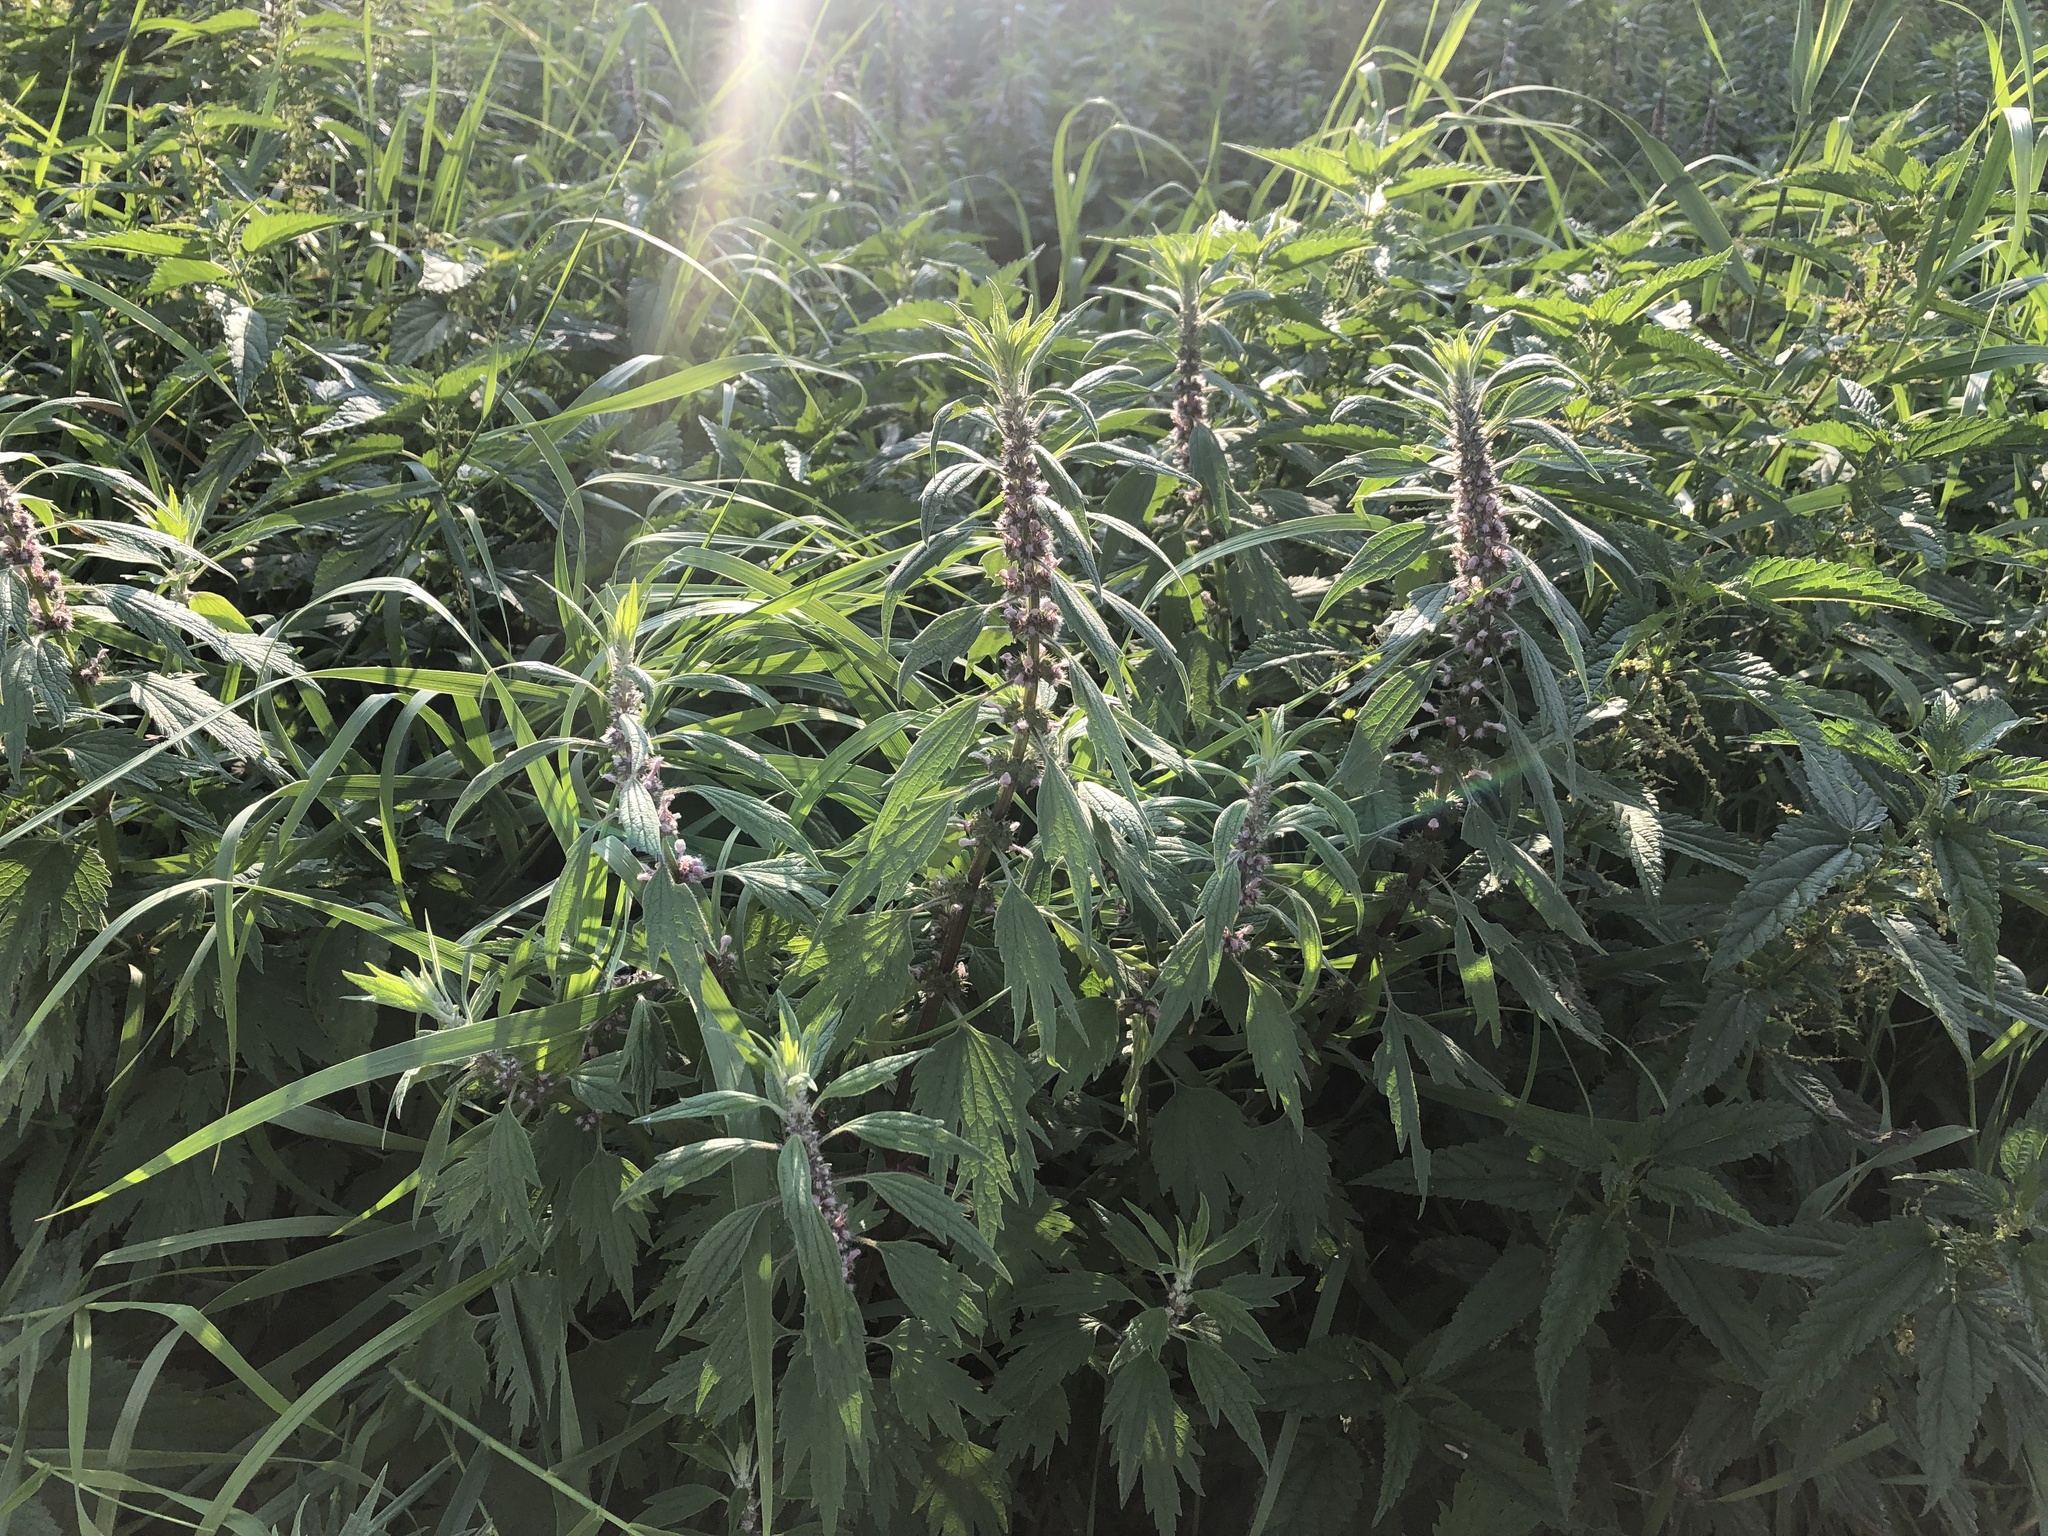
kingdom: Plantae
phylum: Tracheophyta
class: Magnoliopsida
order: Lamiales
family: Lamiaceae
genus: Leonurus
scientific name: Leonurus cardiaca
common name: Motherwort
